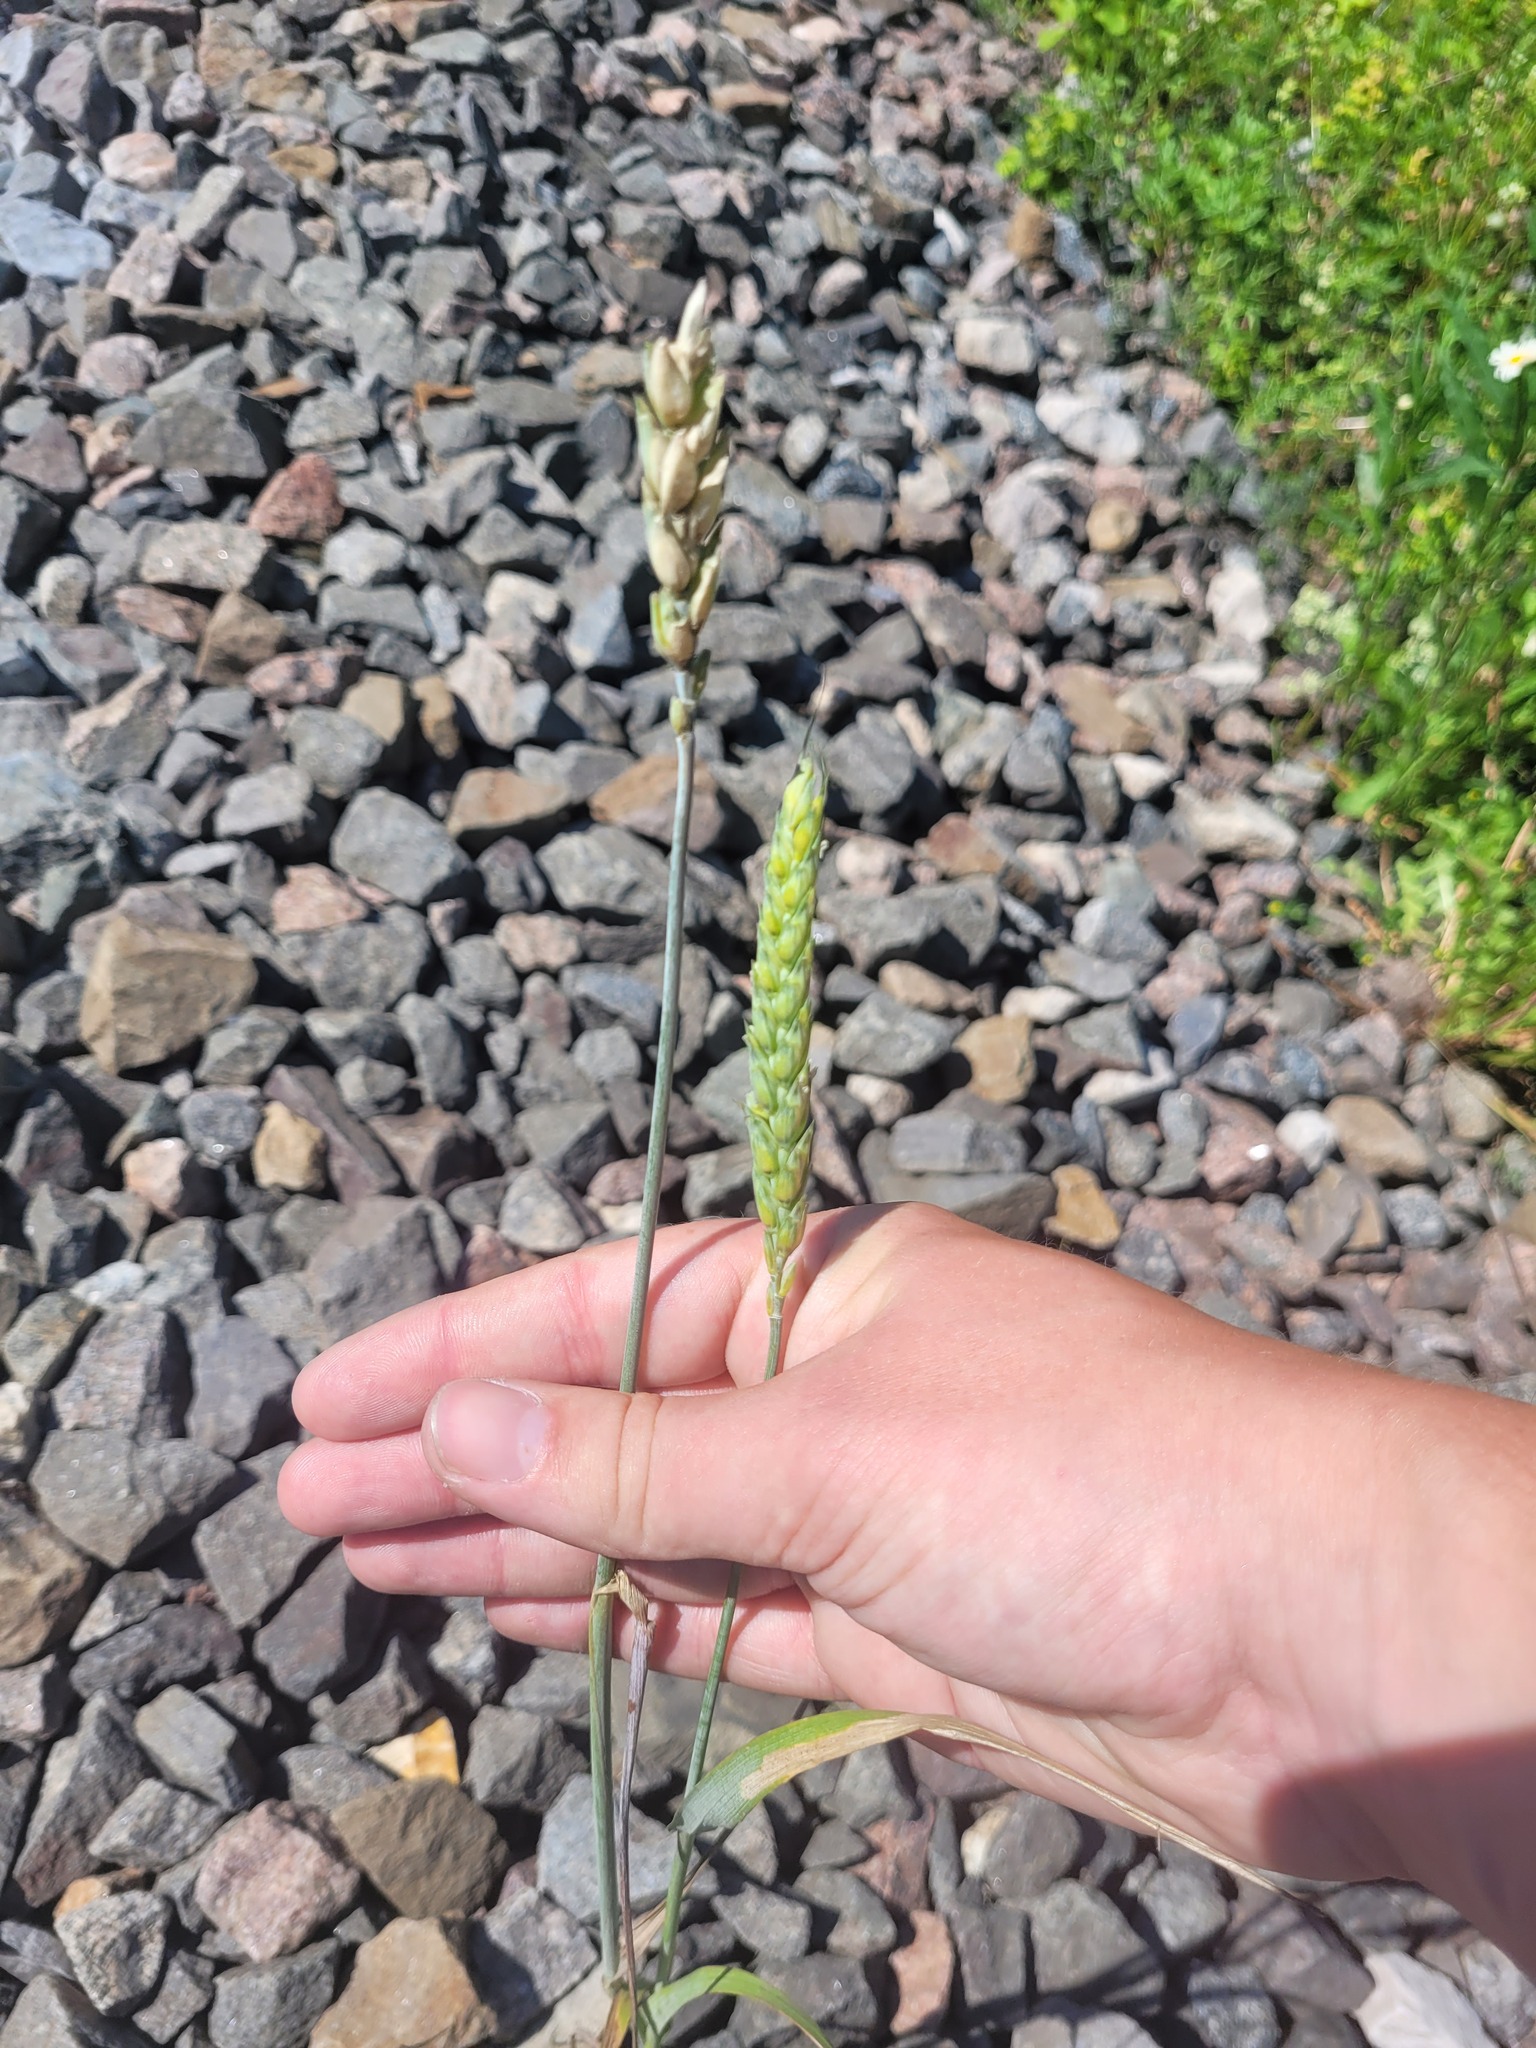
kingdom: Plantae
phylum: Tracheophyta
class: Liliopsida
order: Poales
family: Poaceae
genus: Triticum
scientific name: Triticum aestivum
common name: Common wheat
